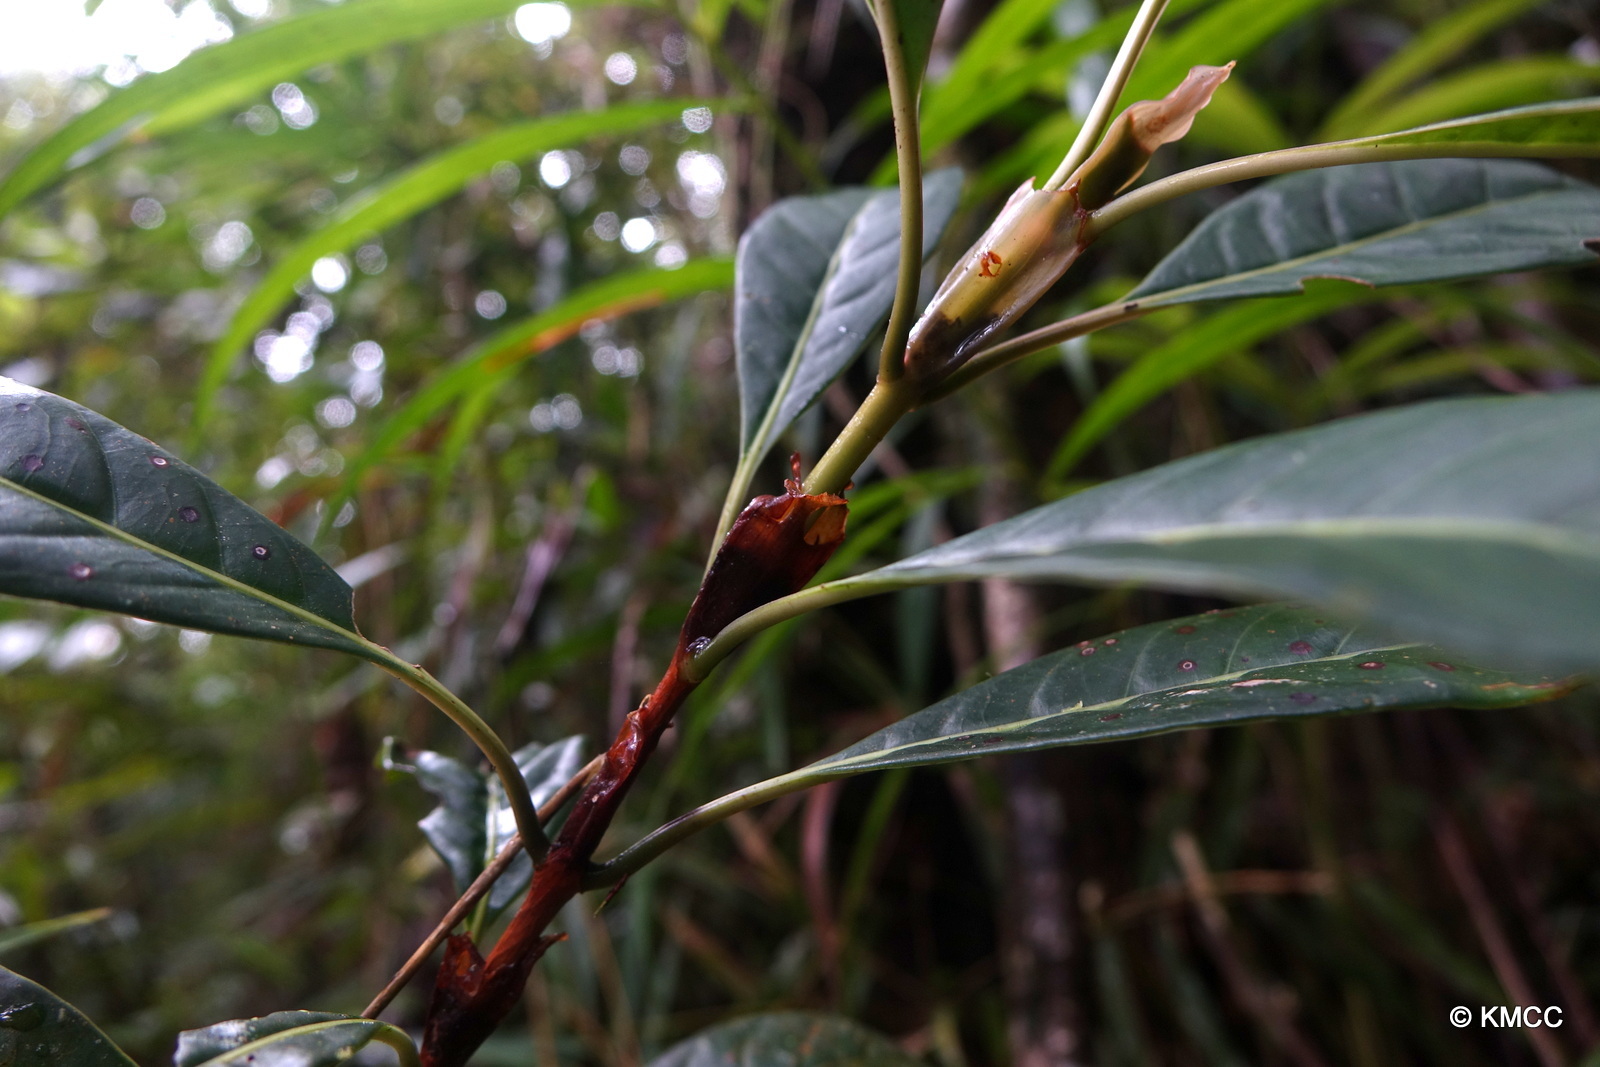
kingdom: Plantae
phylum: Tracheophyta
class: Magnoliopsida
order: Gentianales
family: Rubiaceae
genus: Gaertnera
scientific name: Gaertnera macrostipula
